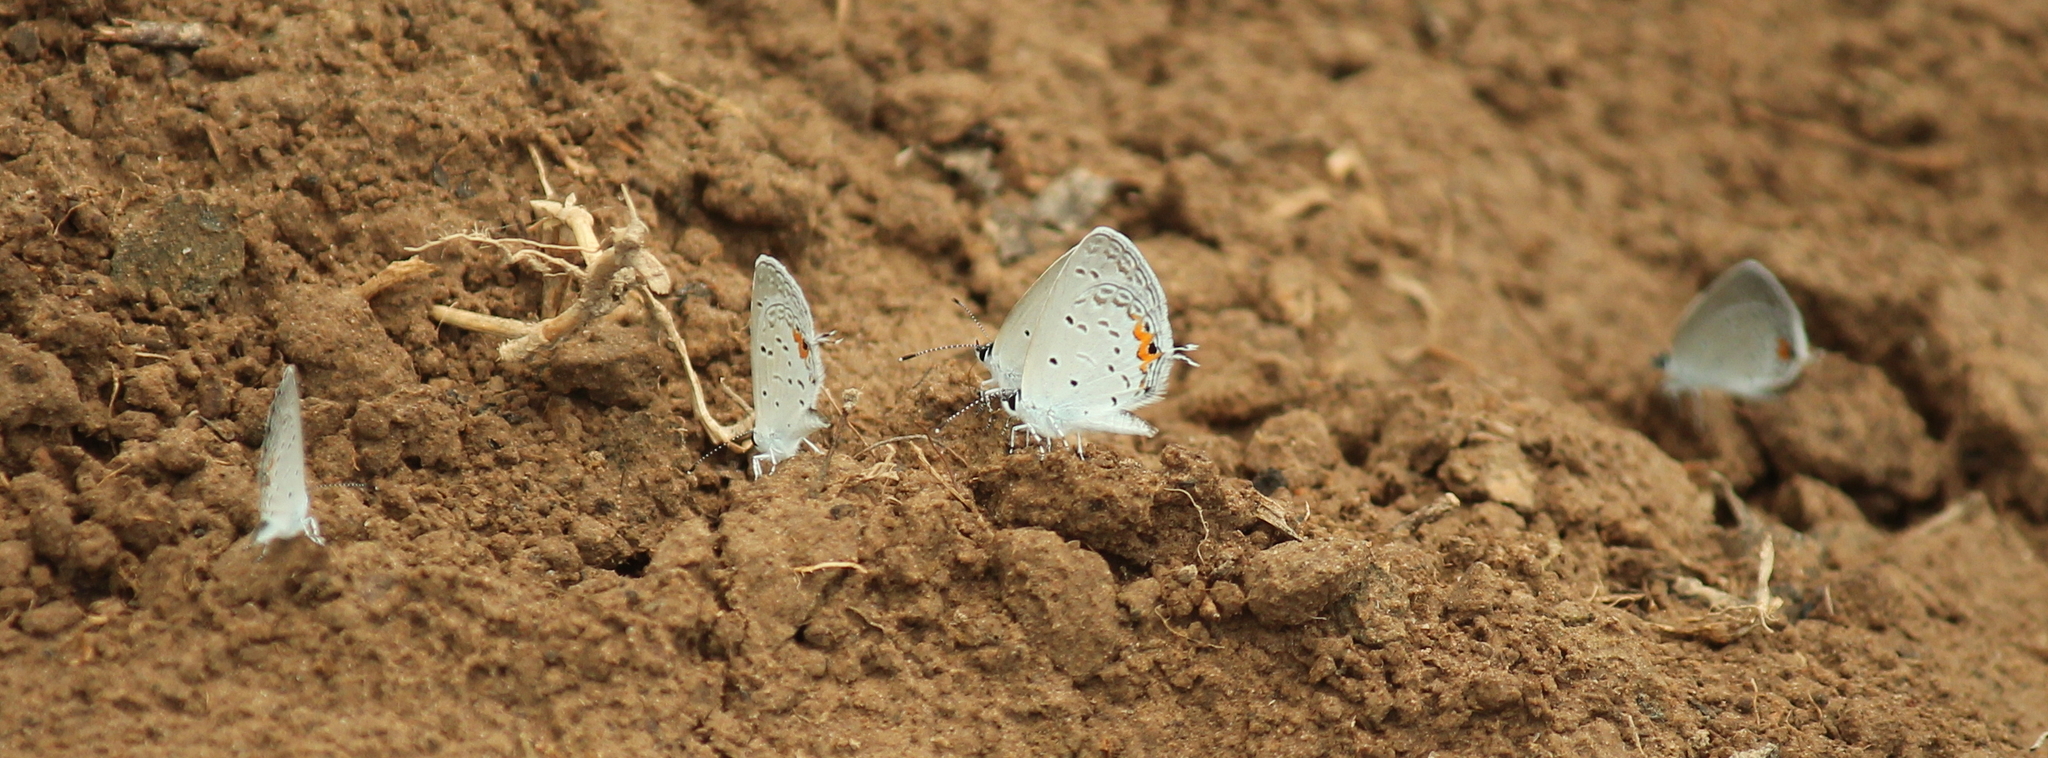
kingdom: Animalia
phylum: Arthropoda
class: Insecta
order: Lepidoptera
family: Lycaenidae
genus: Elkalyce
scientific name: Elkalyce comyntas
